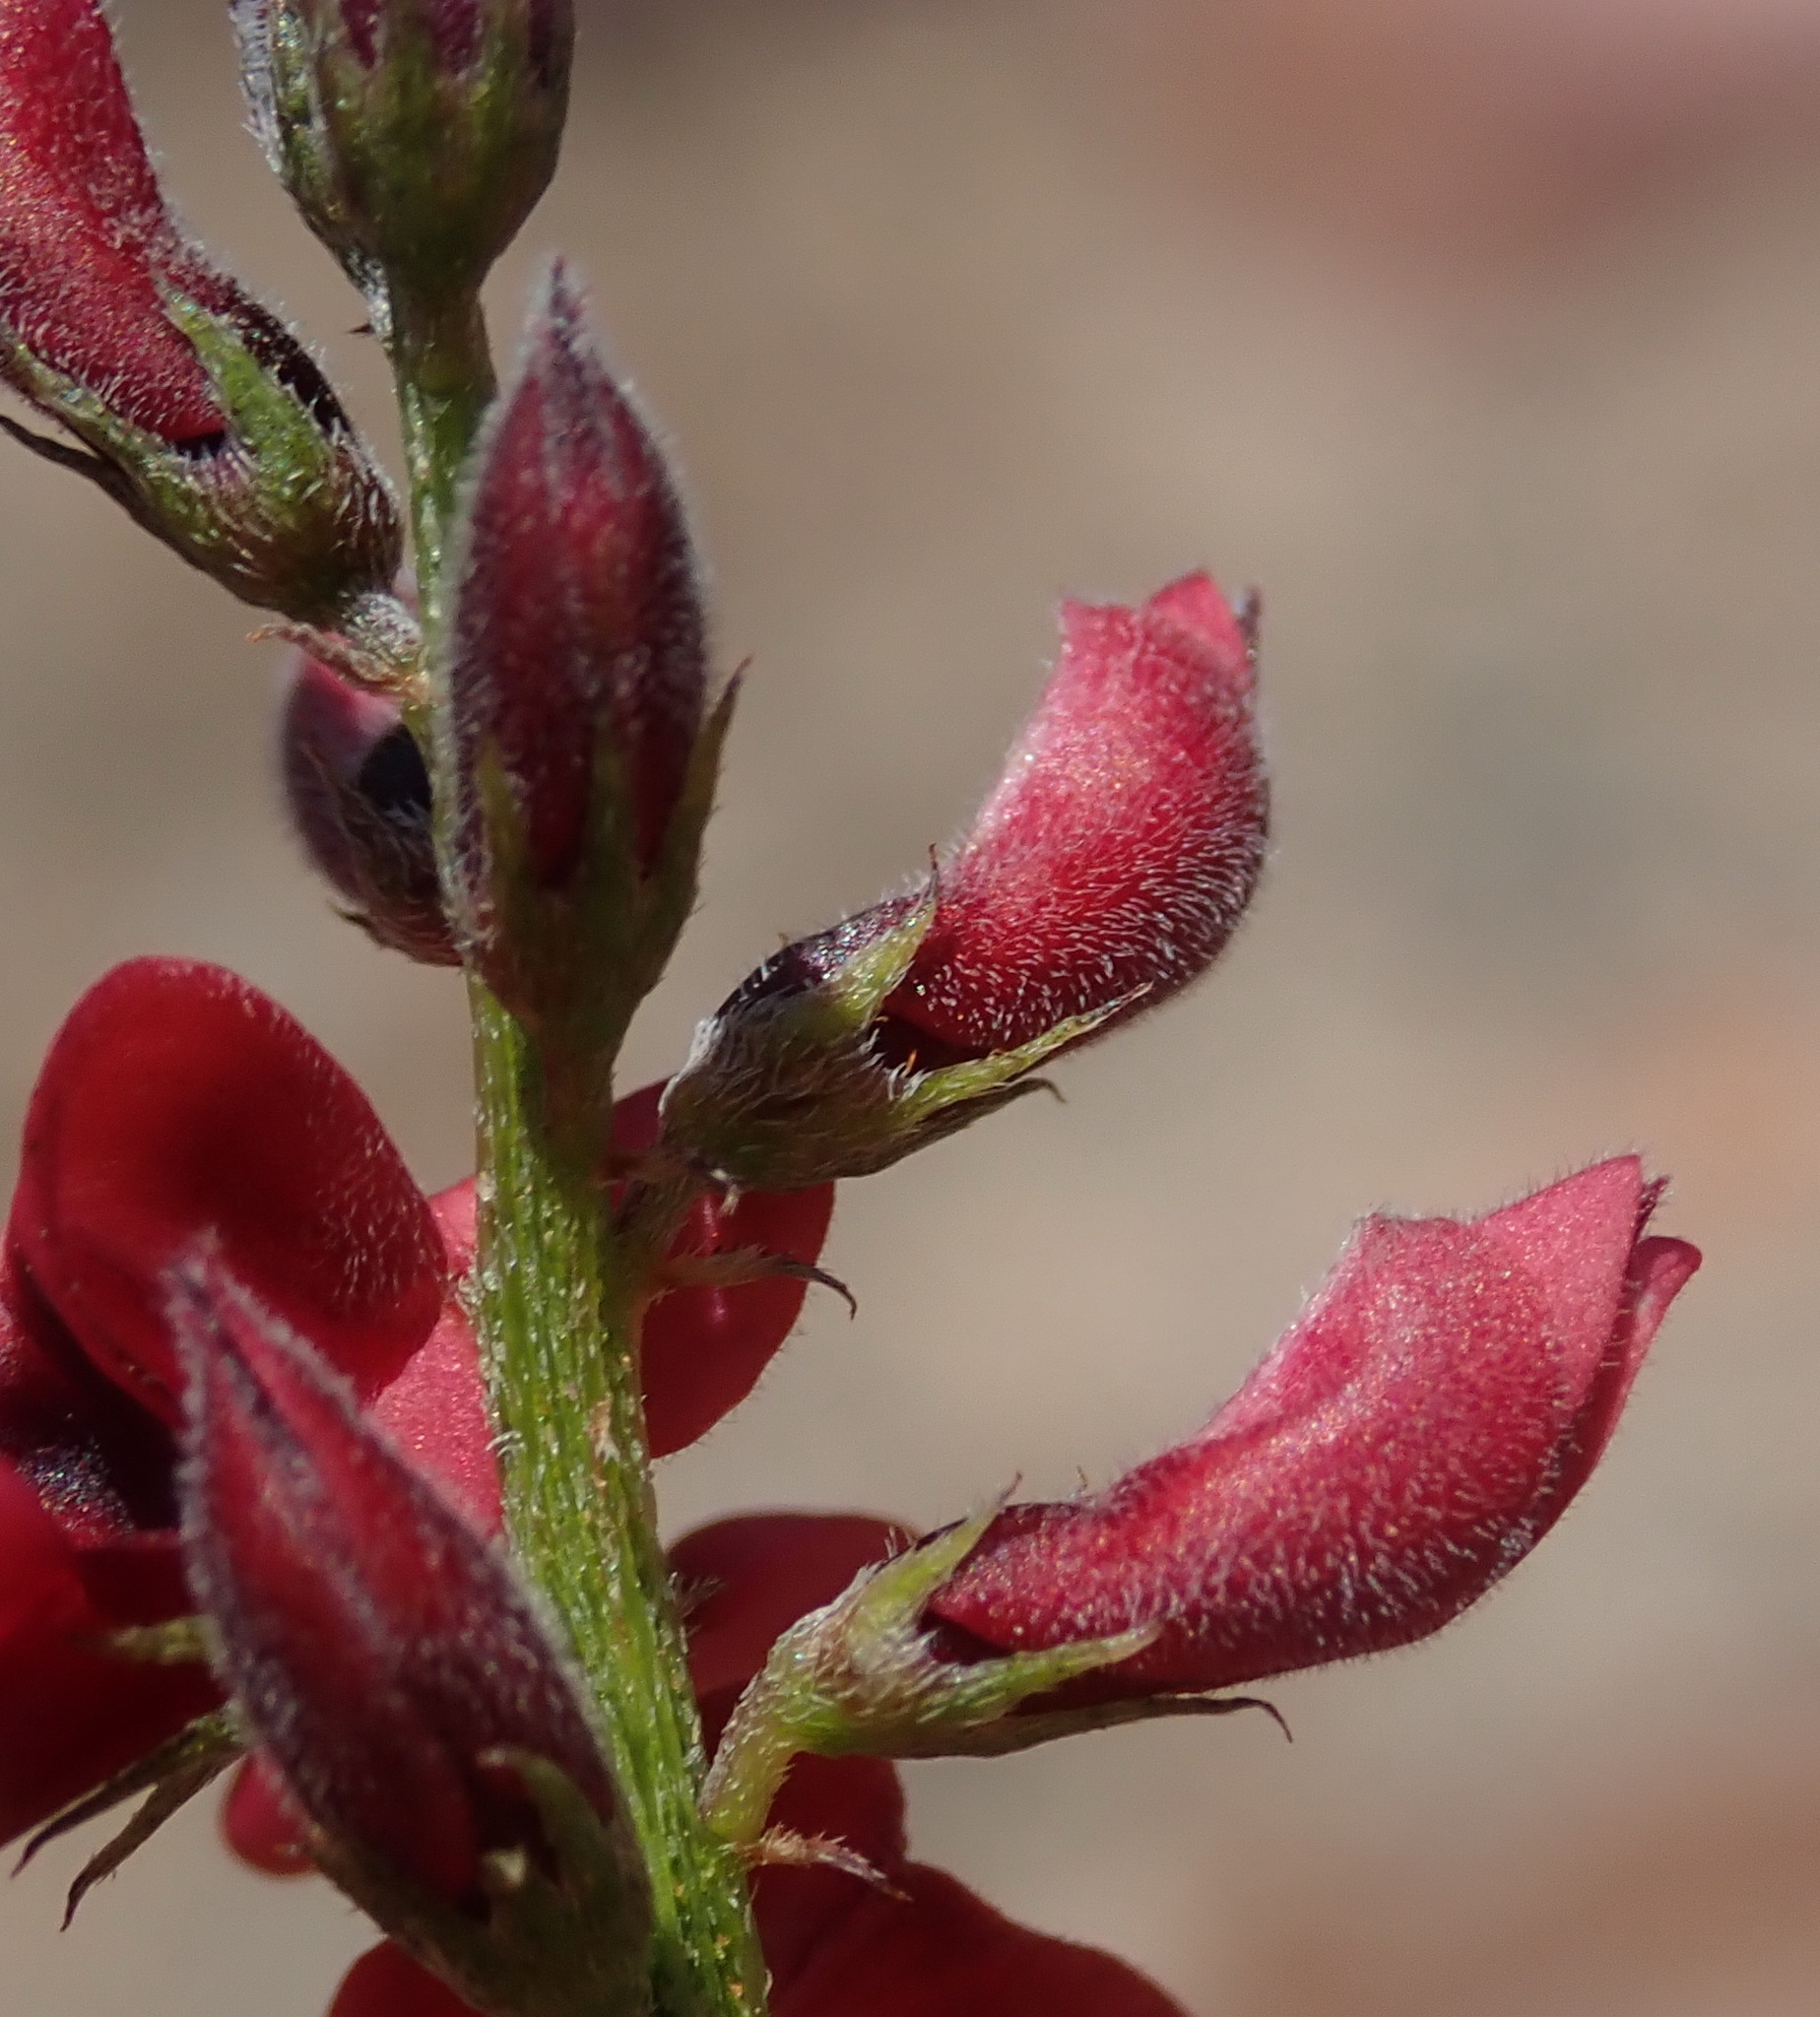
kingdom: Plantae
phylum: Tracheophyta
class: Magnoliopsida
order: Fabales
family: Fabaceae
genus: Indigofera
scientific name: Indigofera heterophylla
